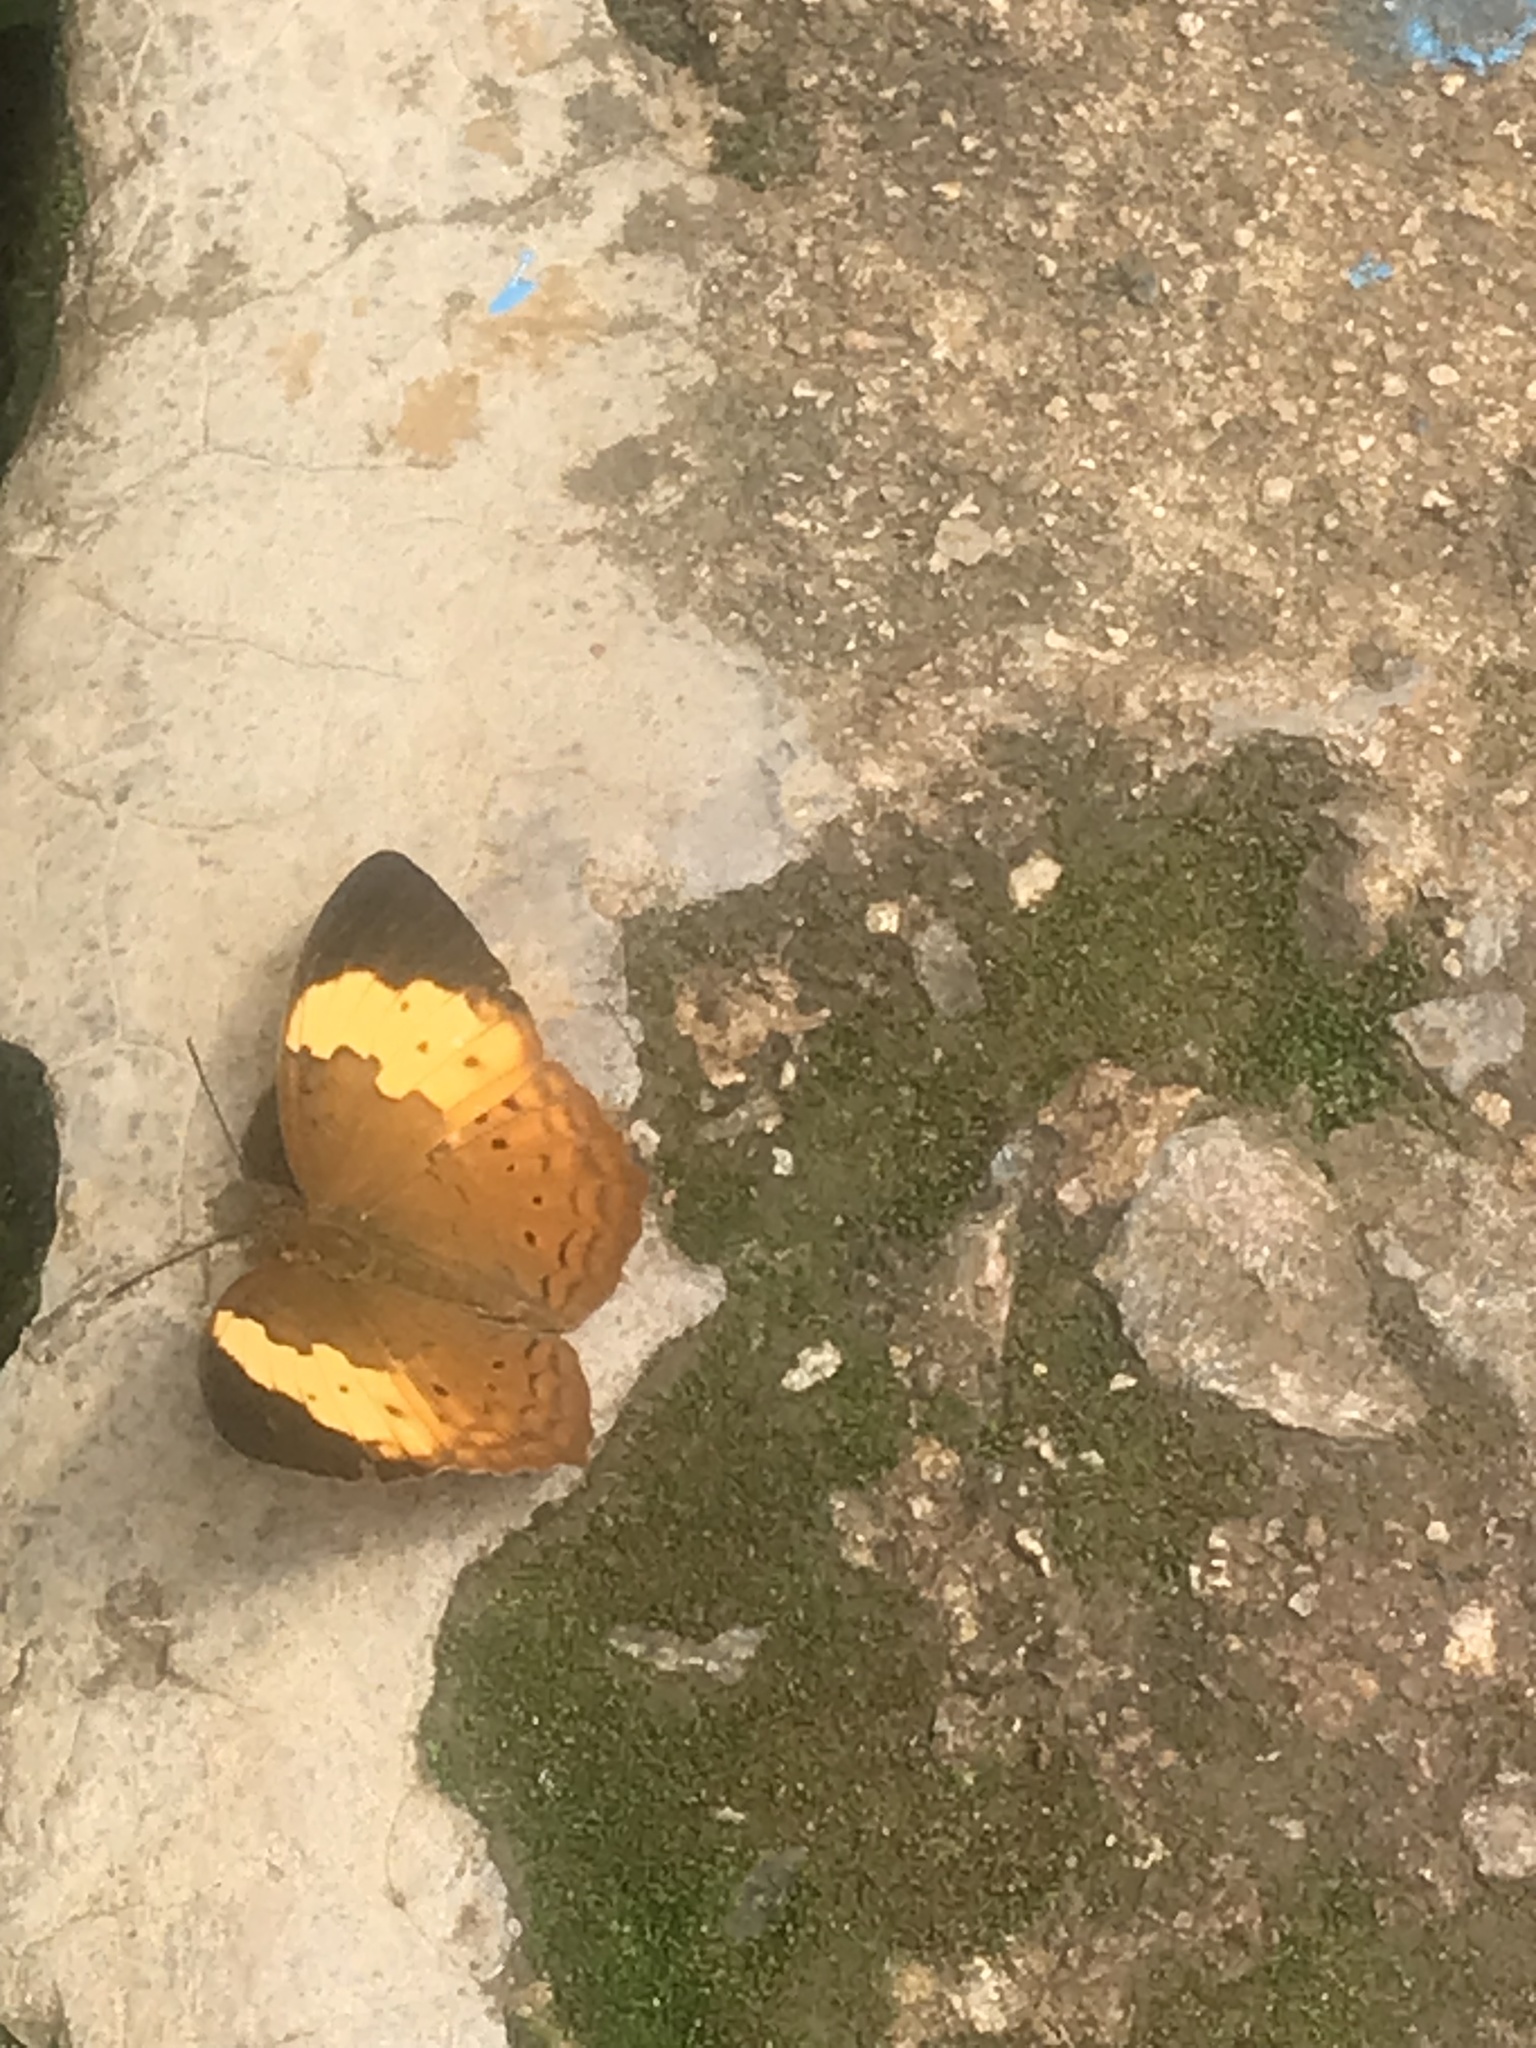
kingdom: Animalia
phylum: Arthropoda
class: Insecta
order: Lepidoptera
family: Nymphalidae
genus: Cupha
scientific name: Cupha erymanthis
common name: Rustic
